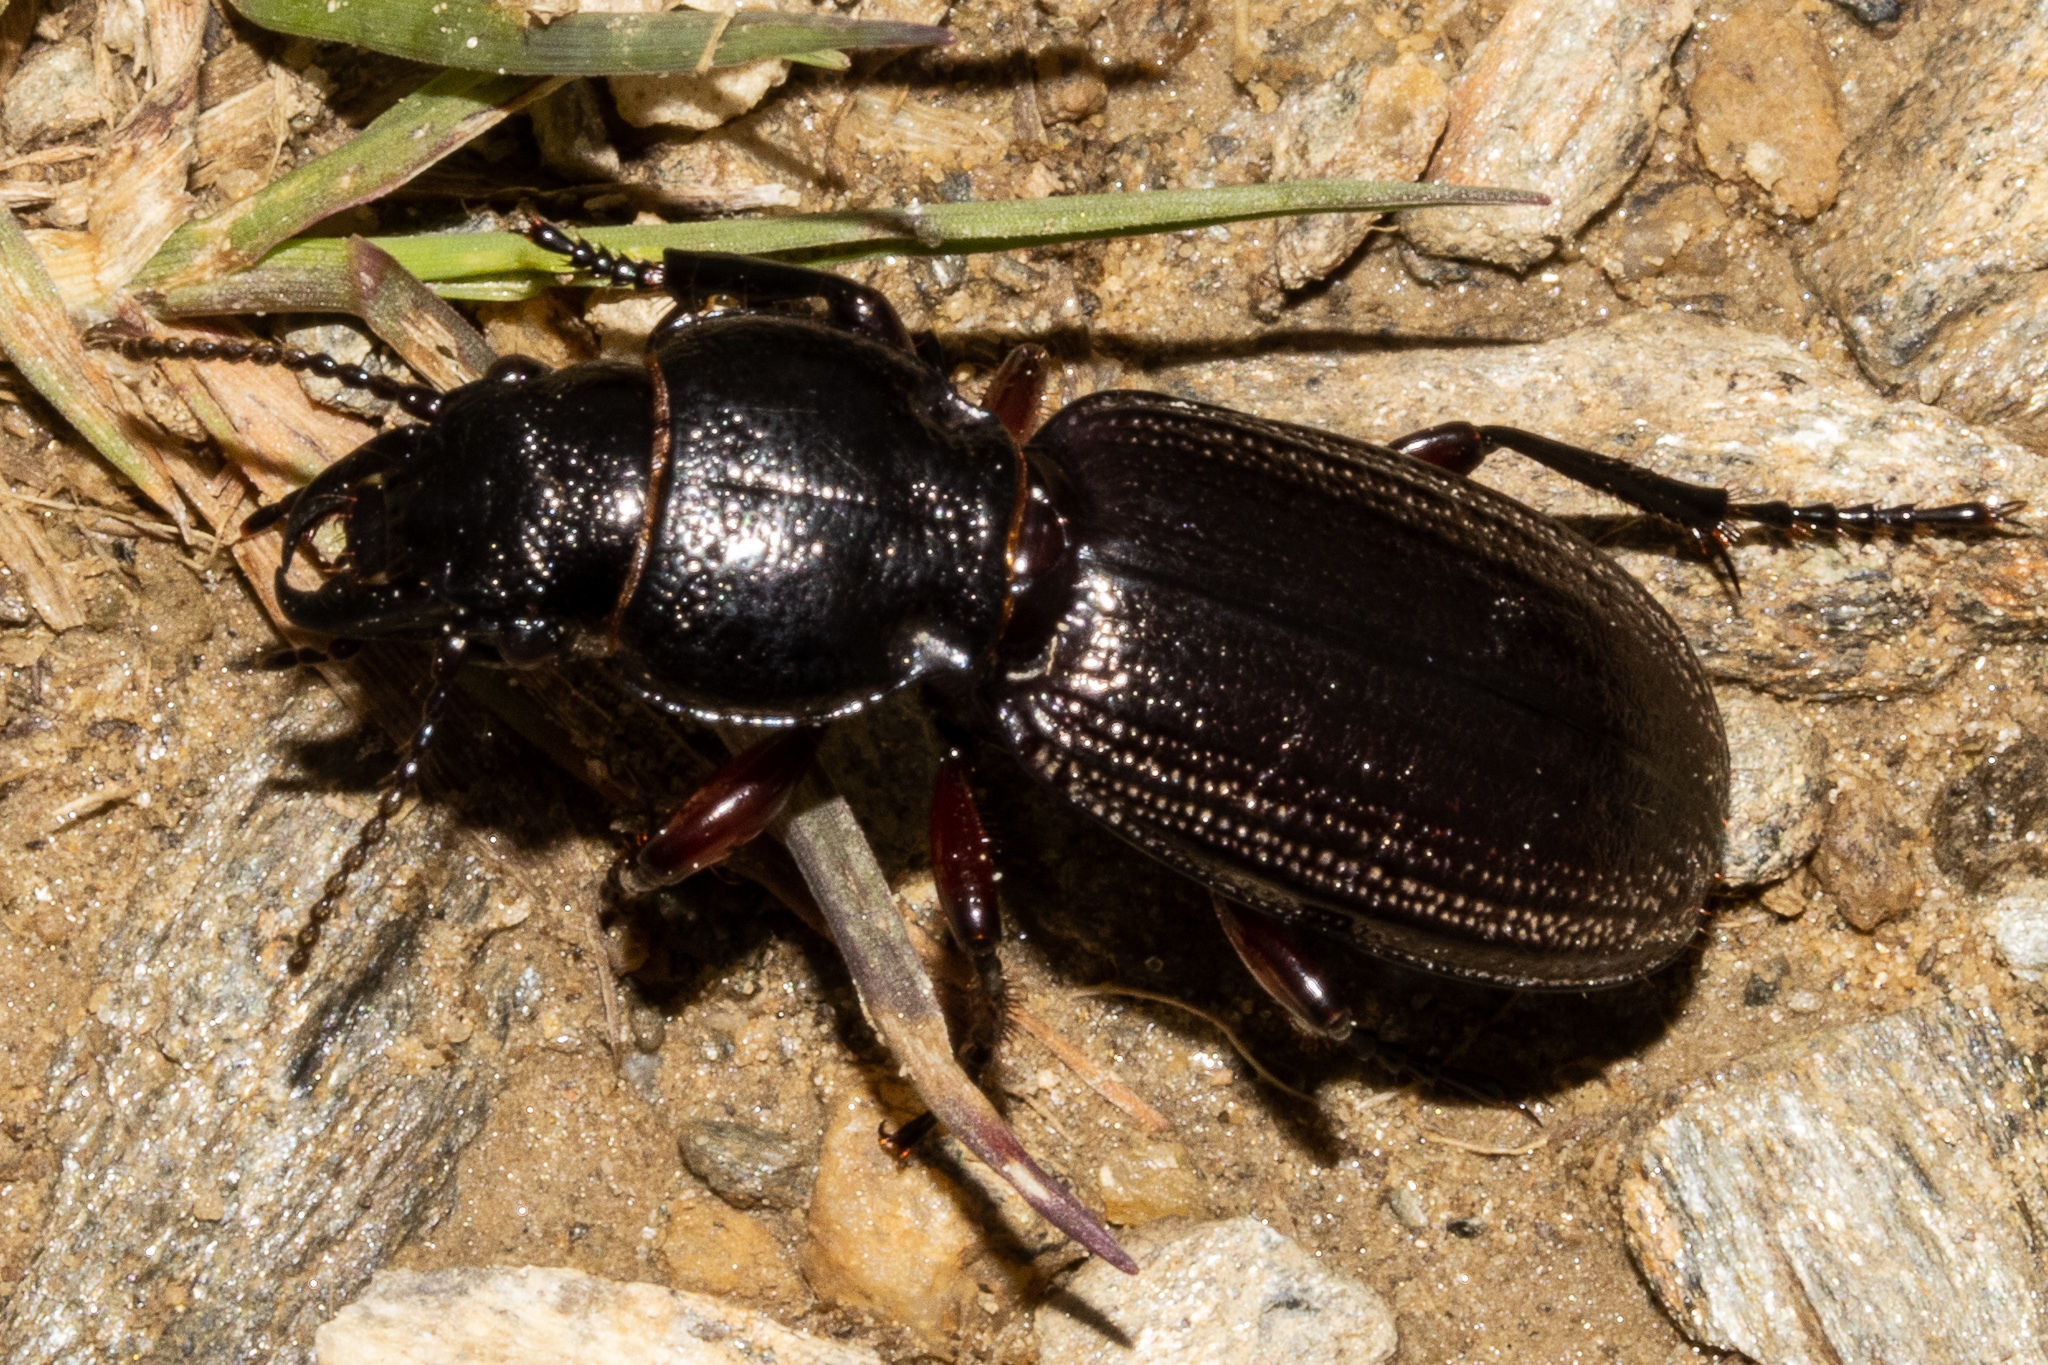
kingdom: Animalia
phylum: Arthropoda
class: Insecta
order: Coleoptera
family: Carabidae
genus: Mecodema
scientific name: Mecodema sculpturatum
